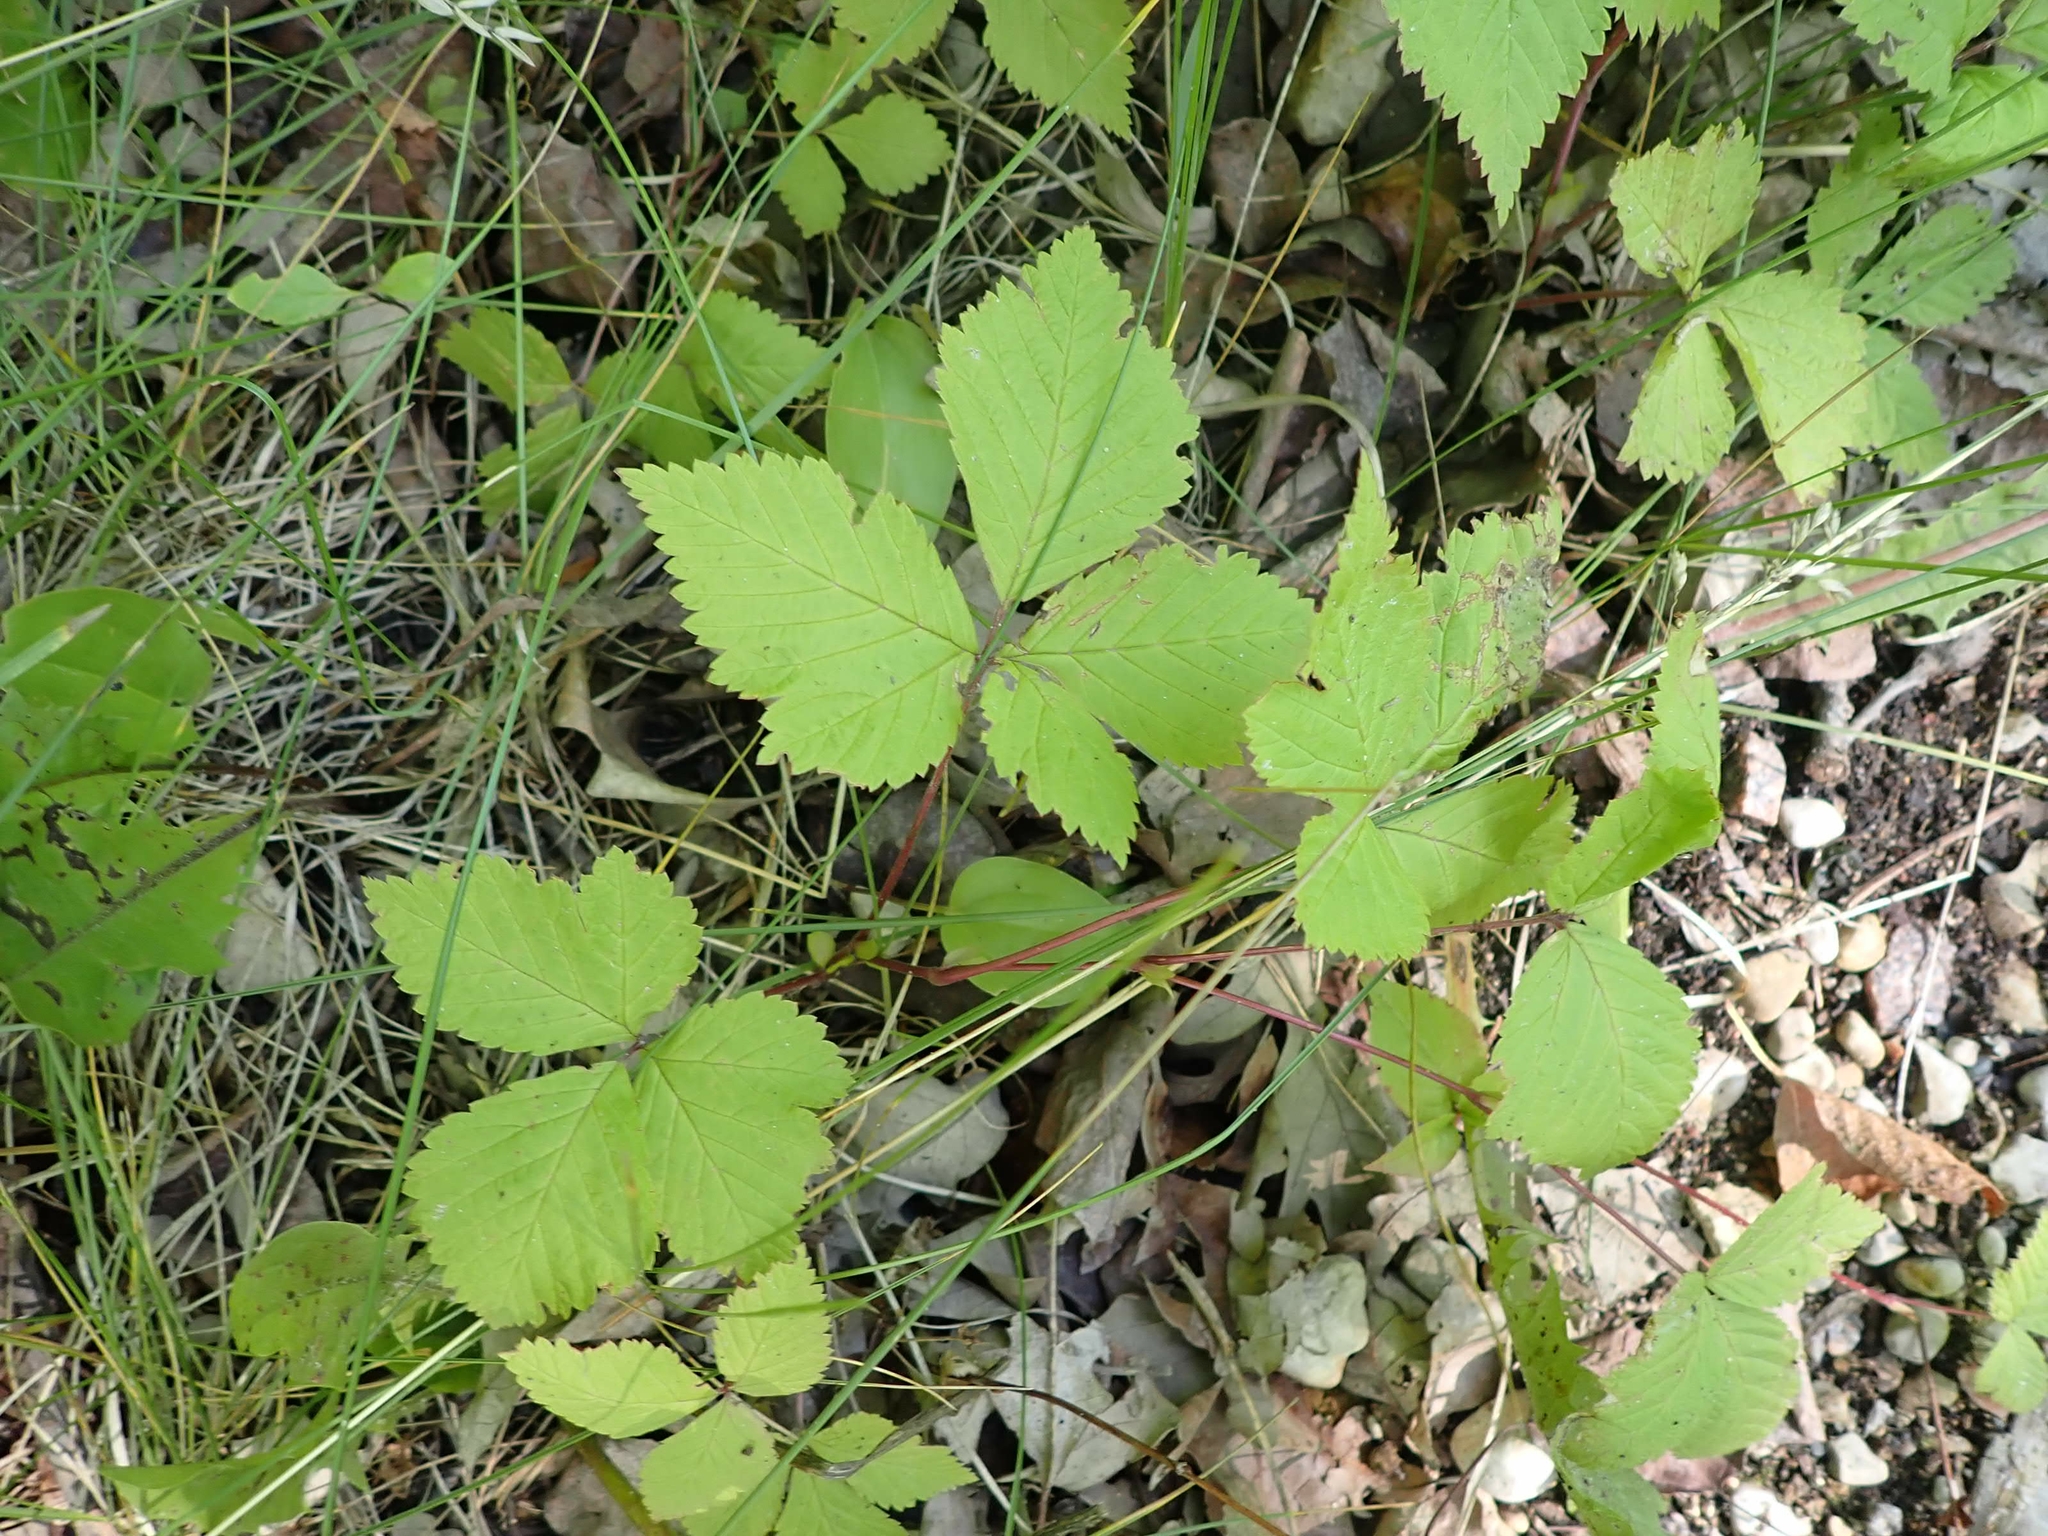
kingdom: Plantae
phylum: Tracheophyta
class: Magnoliopsida
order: Rosales
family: Rosaceae
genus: Rubus
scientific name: Rubus pubescens
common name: Dwarf raspberry
